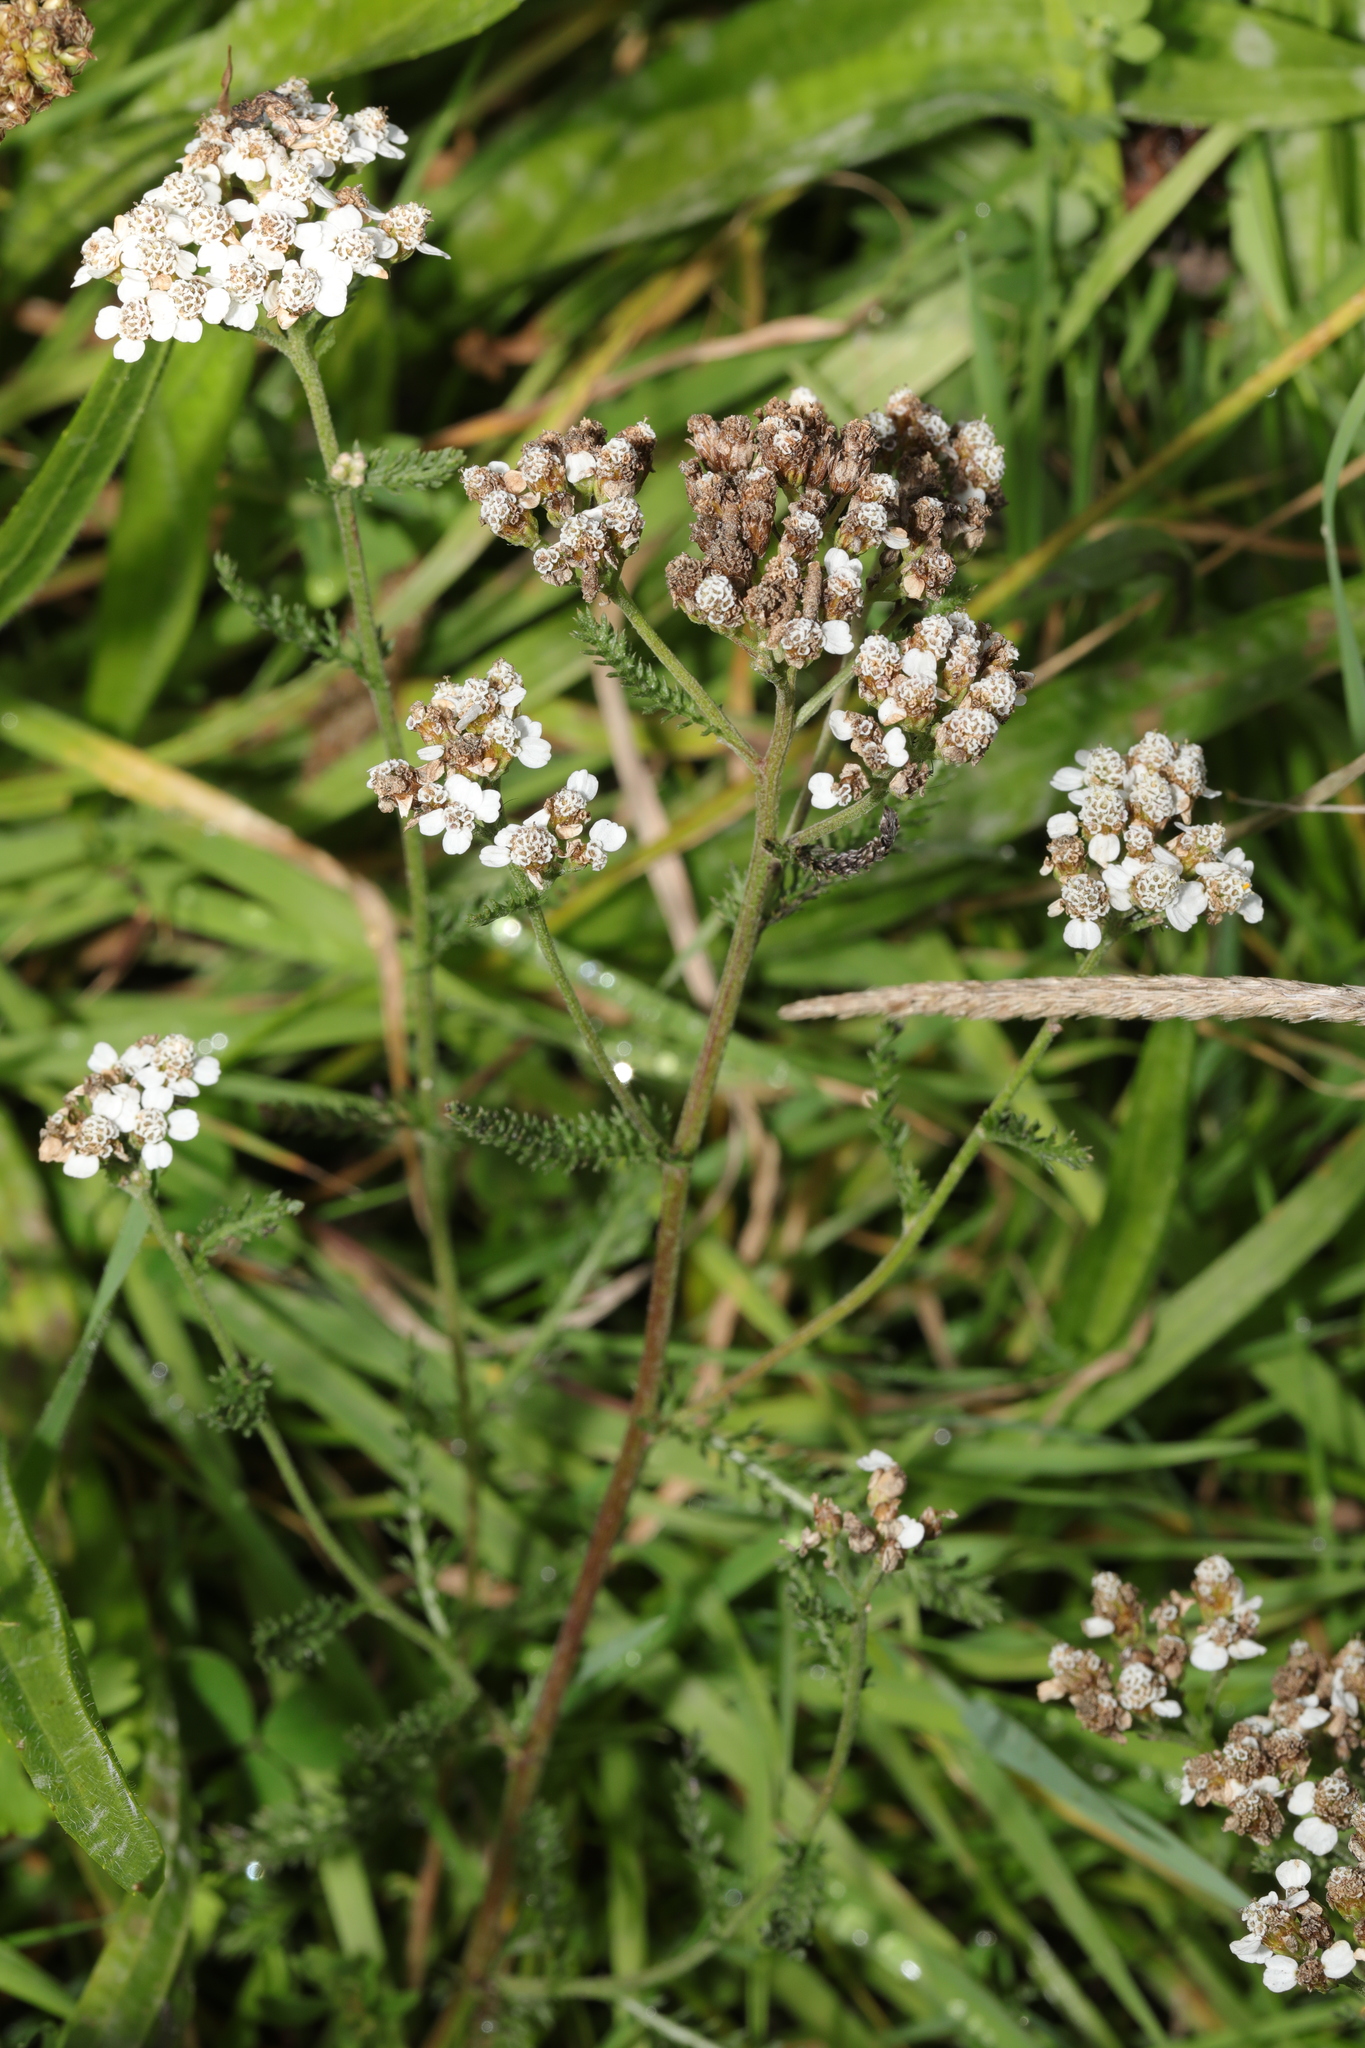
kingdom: Plantae
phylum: Tracheophyta
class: Magnoliopsida
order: Asterales
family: Asteraceae
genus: Achillea
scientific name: Achillea millefolium
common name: Yarrow
